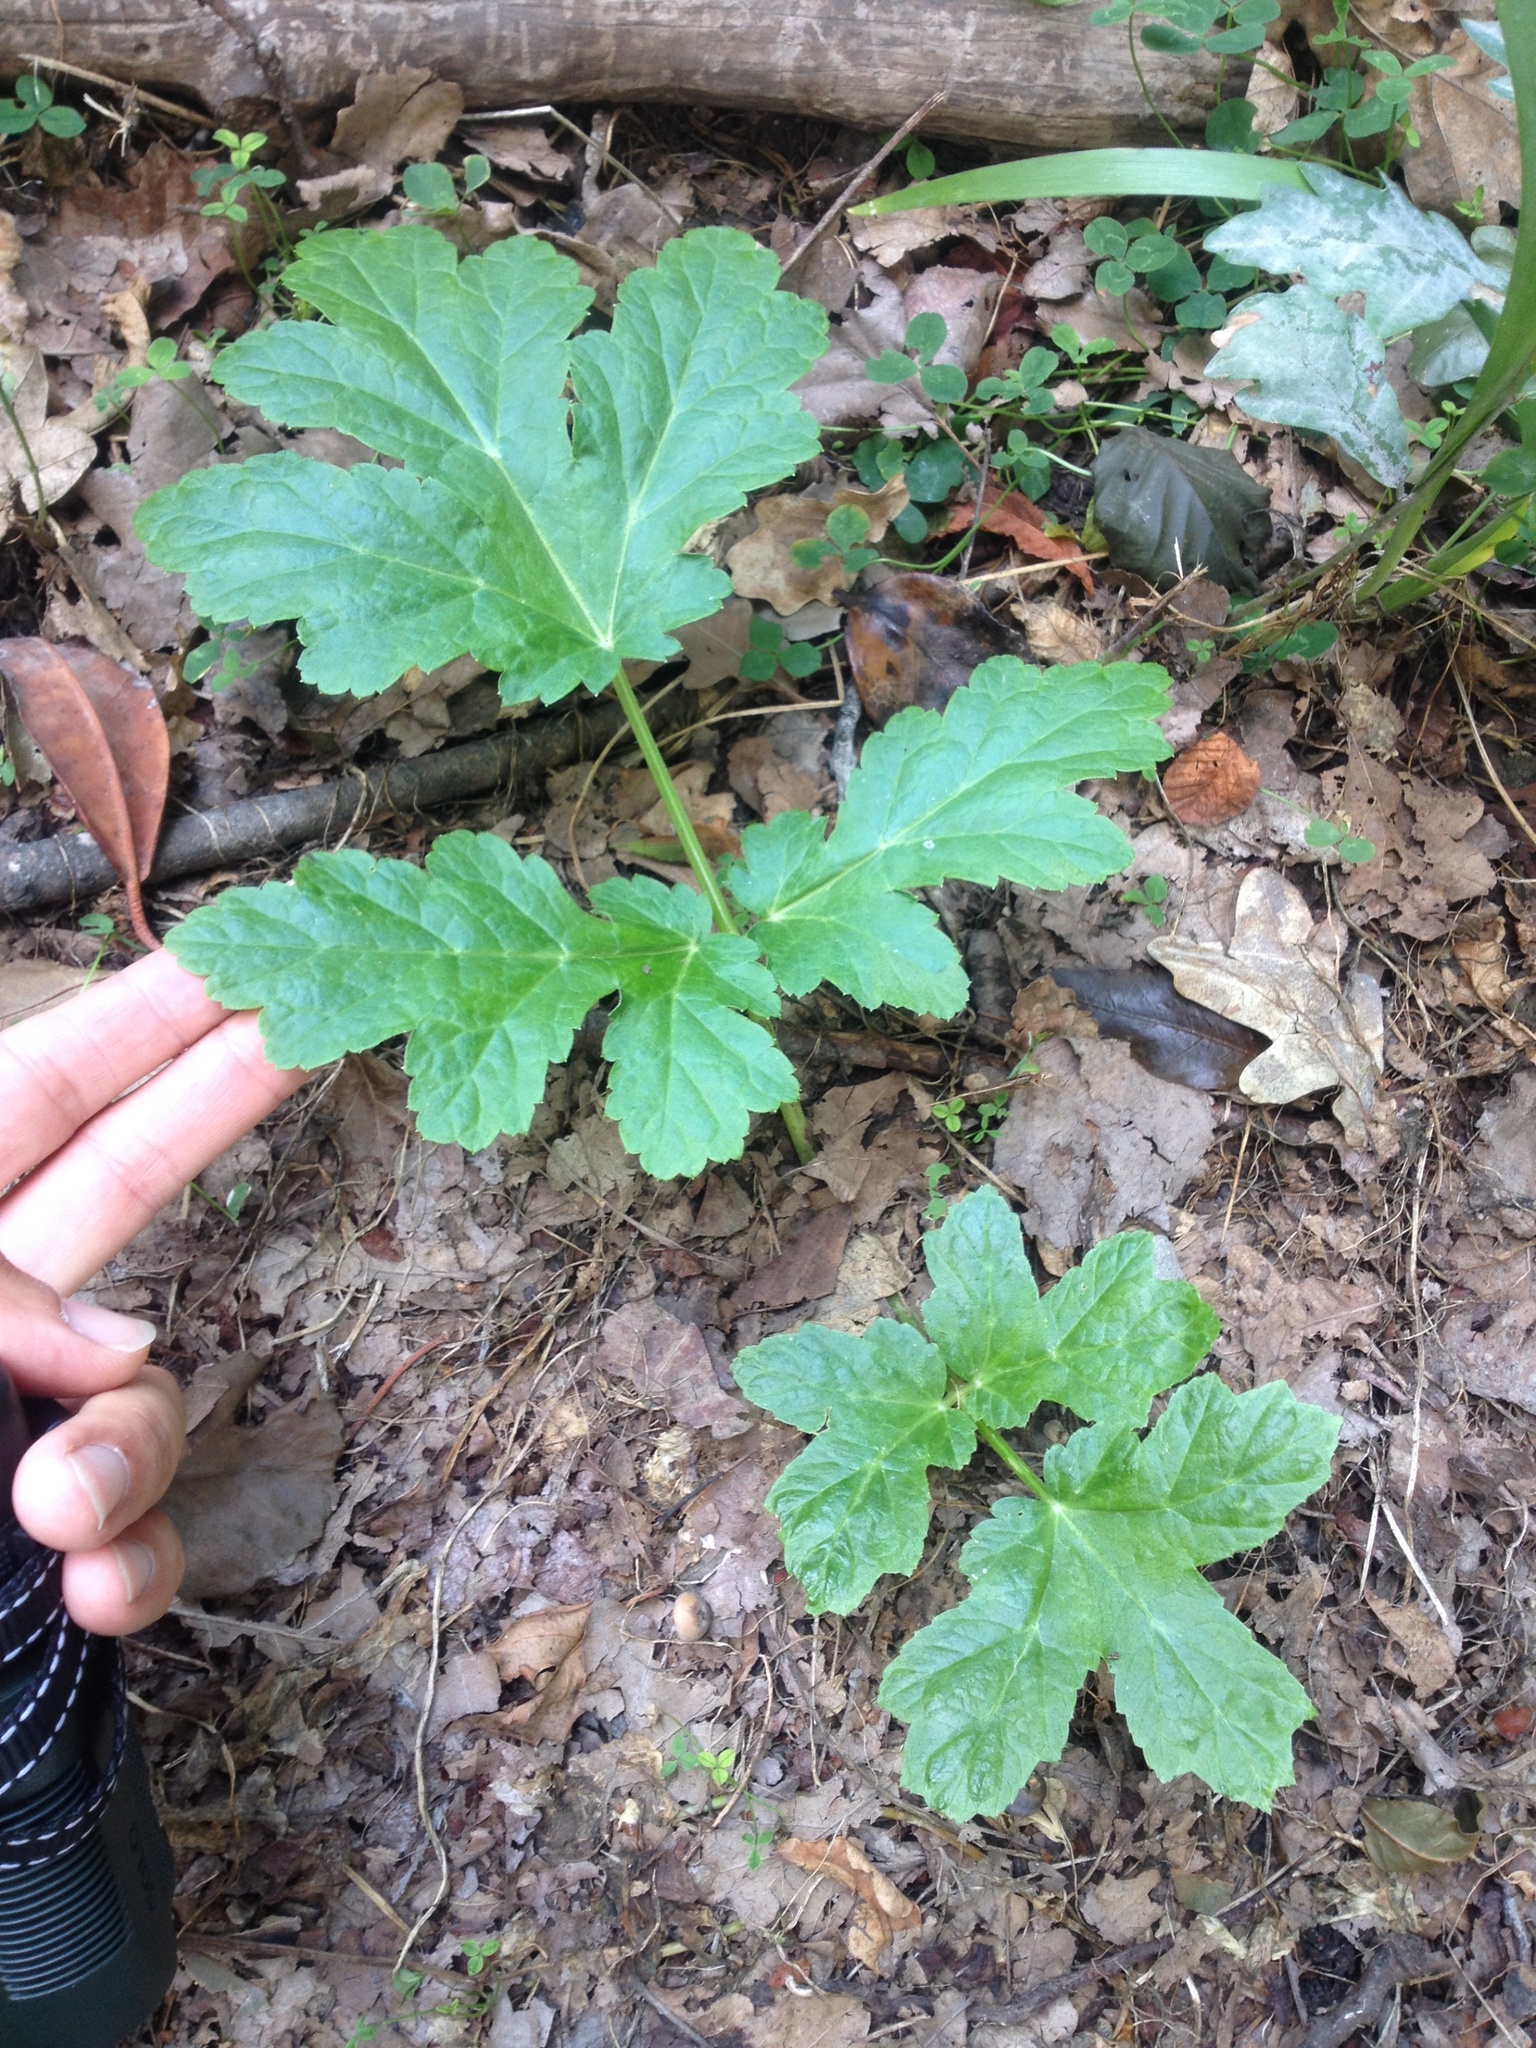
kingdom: Plantae
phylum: Tracheophyta
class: Magnoliopsida
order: Apiales
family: Apiaceae
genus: Heracleum
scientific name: Heracleum mantegazzianum
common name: Giant hogweed
